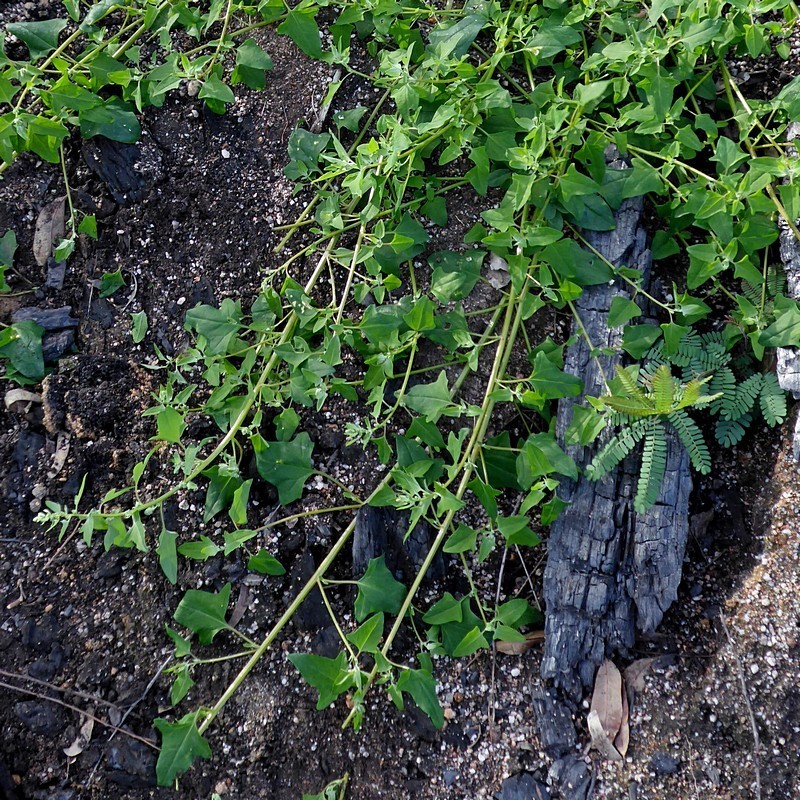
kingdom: Plantae
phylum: Tracheophyta
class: Magnoliopsida
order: Caryophyllales
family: Amaranthaceae
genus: Chenopodium
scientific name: Chenopodium trigonon
